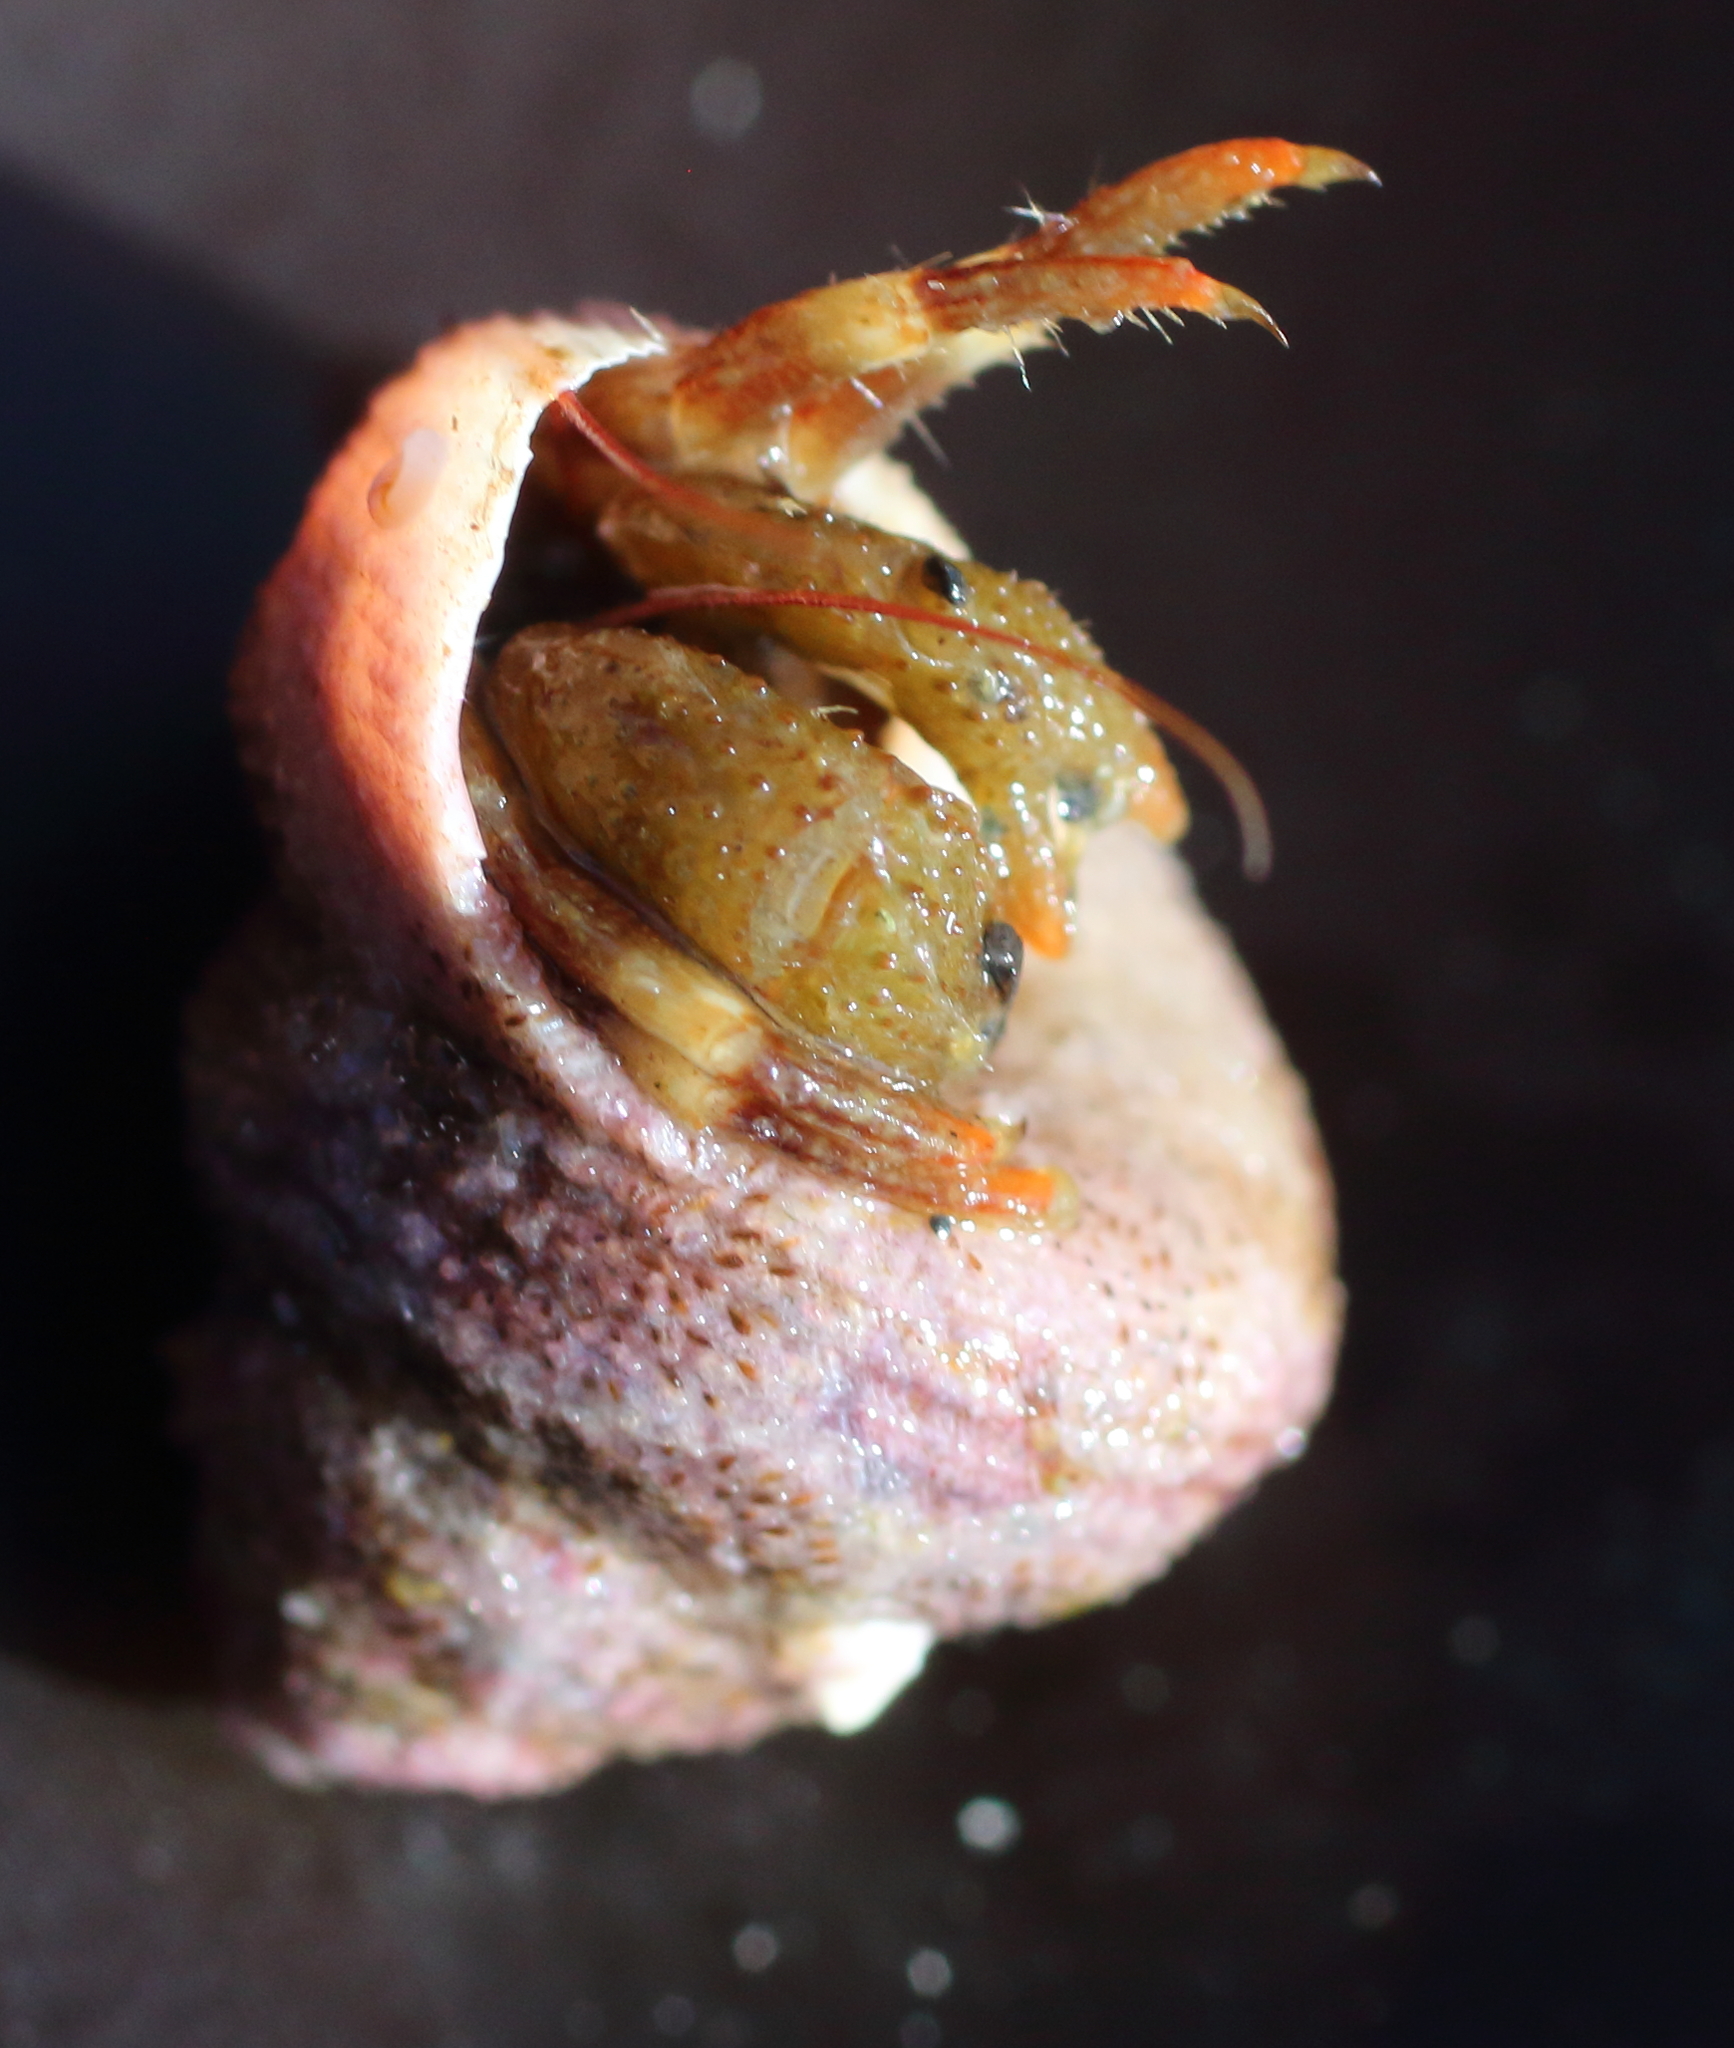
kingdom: Animalia
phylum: Arthropoda
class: Malacostraca
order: Decapoda
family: Paguridae
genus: Pagurus
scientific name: Pagurus caurinus
